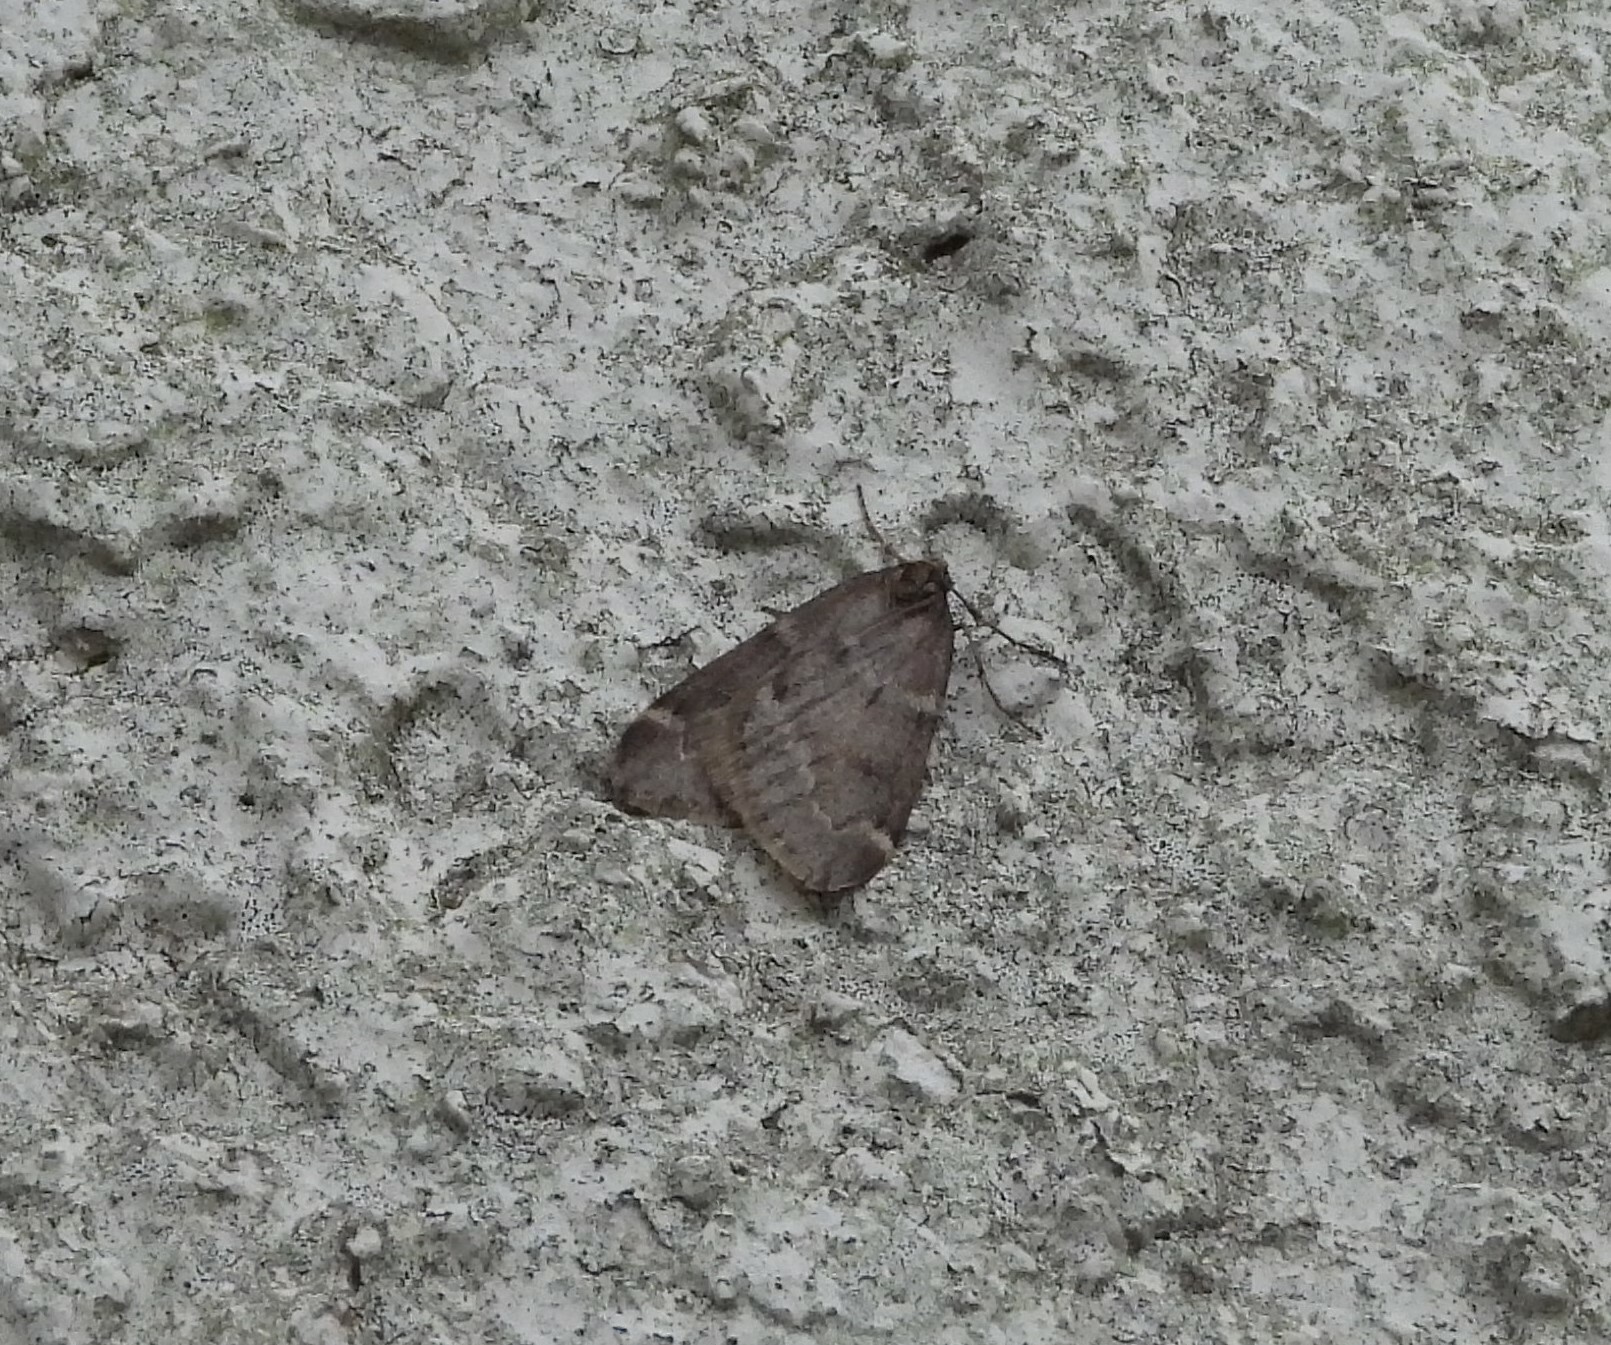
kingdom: Animalia
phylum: Arthropoda
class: Insecta
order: Lepidoptera
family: Geometridae
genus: Alsophila
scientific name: Alsophila pometaria
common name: Fall cankerworm
